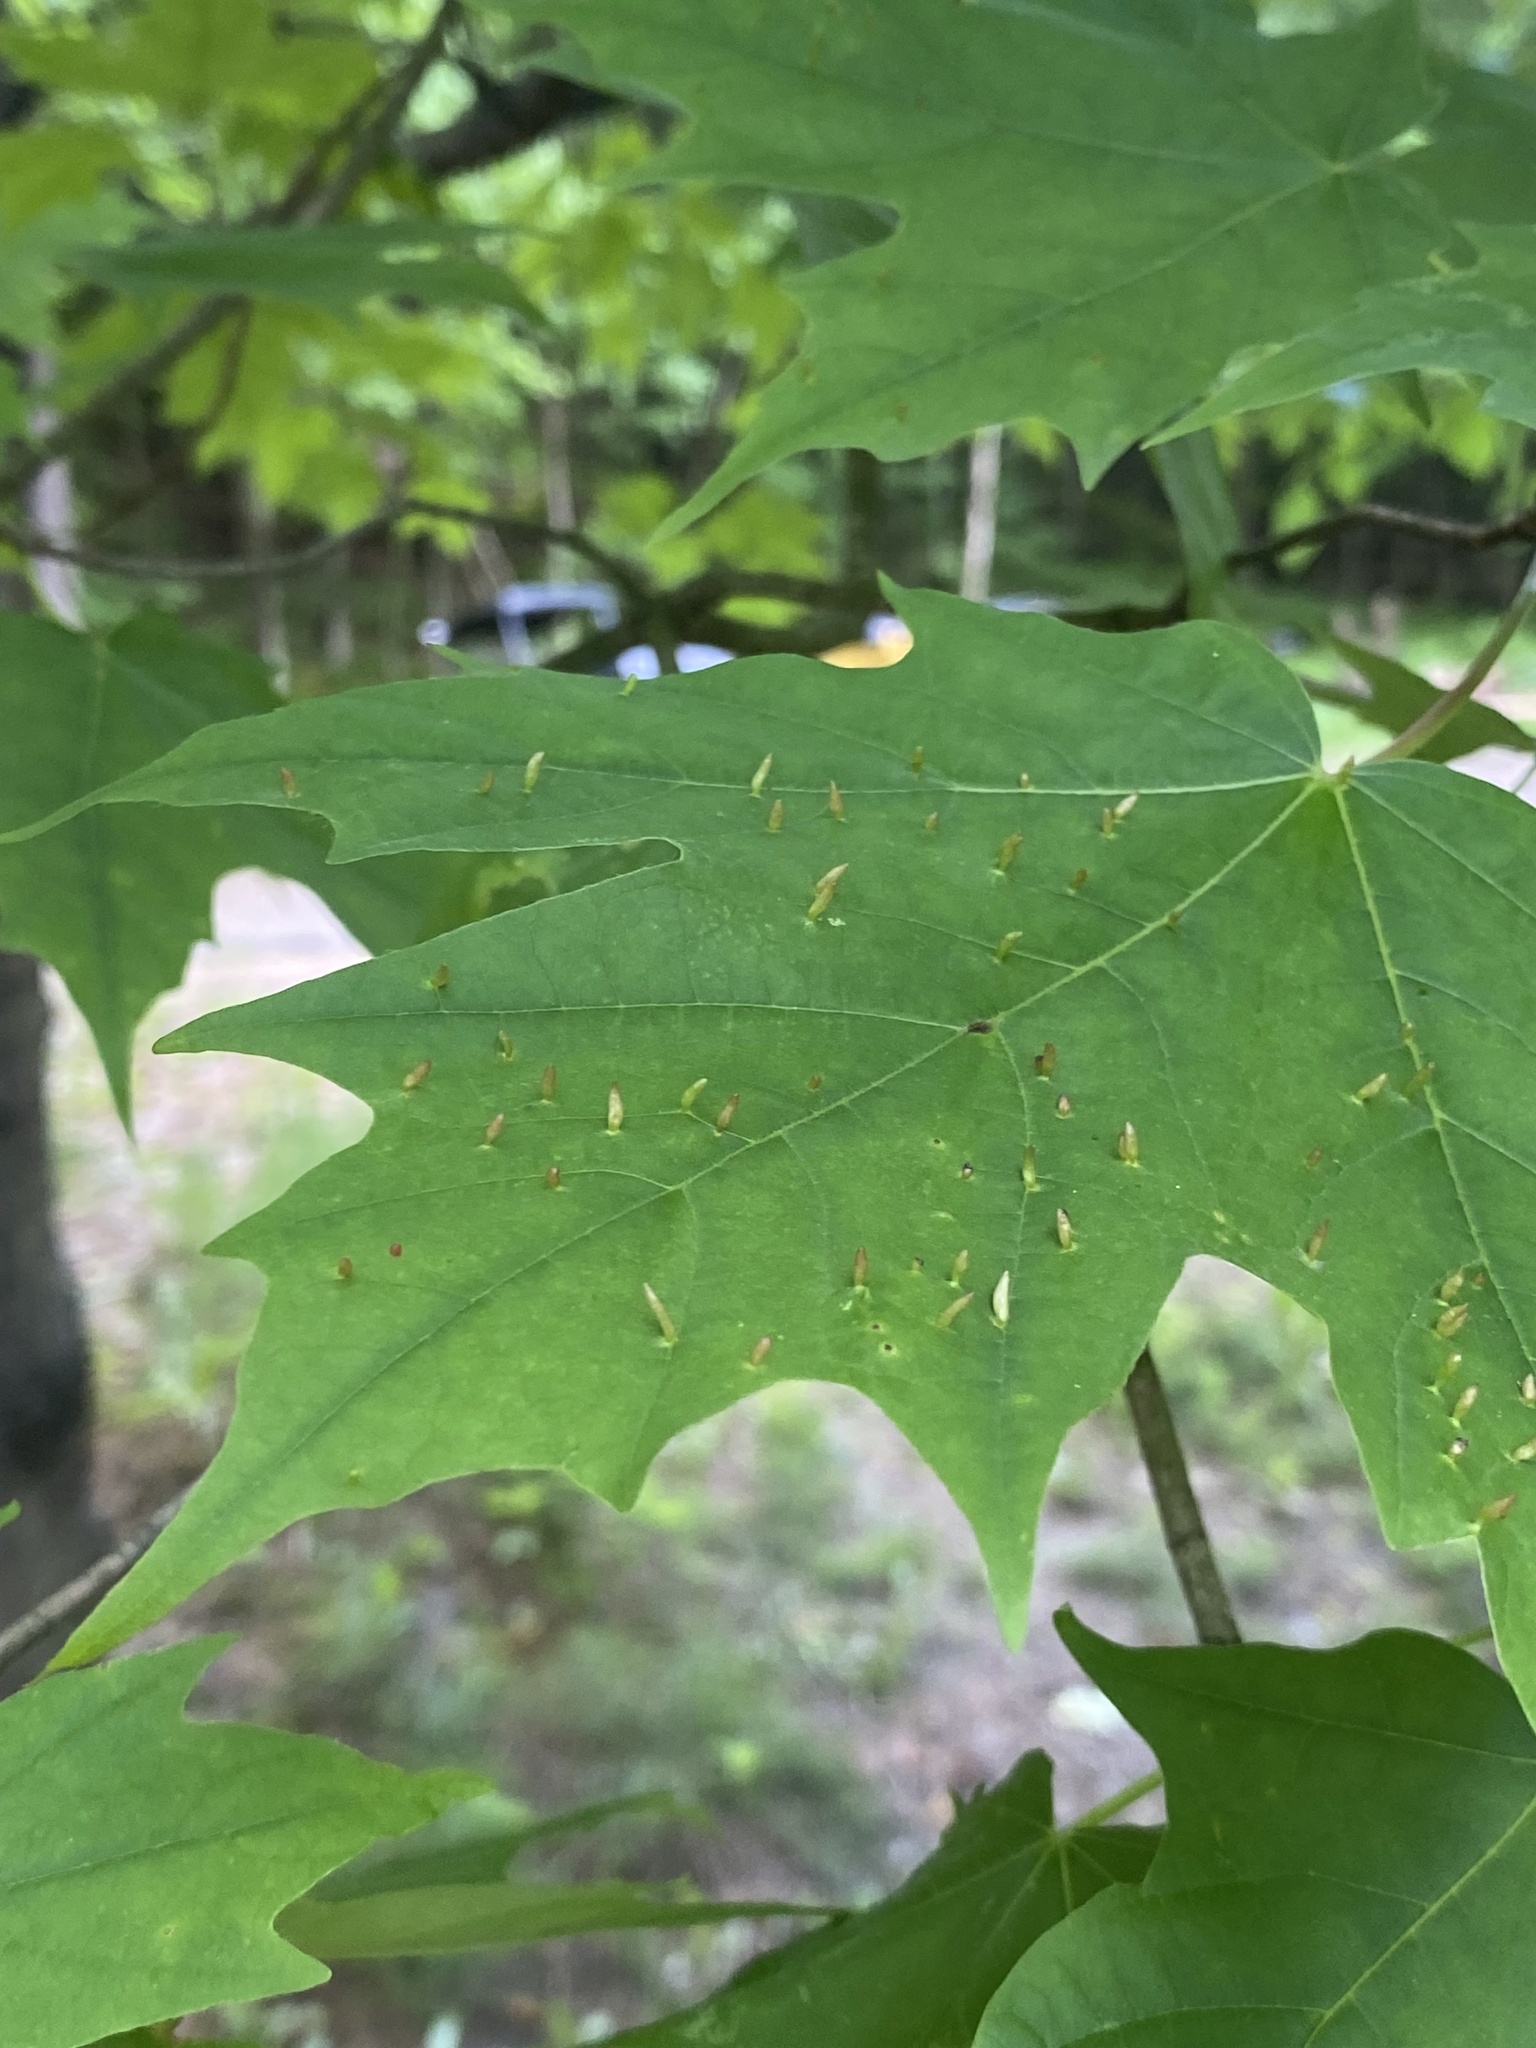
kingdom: Animalia
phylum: Arthropoda
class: Arachnida
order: Trombidiformes
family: Eriophyidae
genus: Vasates
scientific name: Vasates aceriscrumena
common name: Maple spindle gall mite
